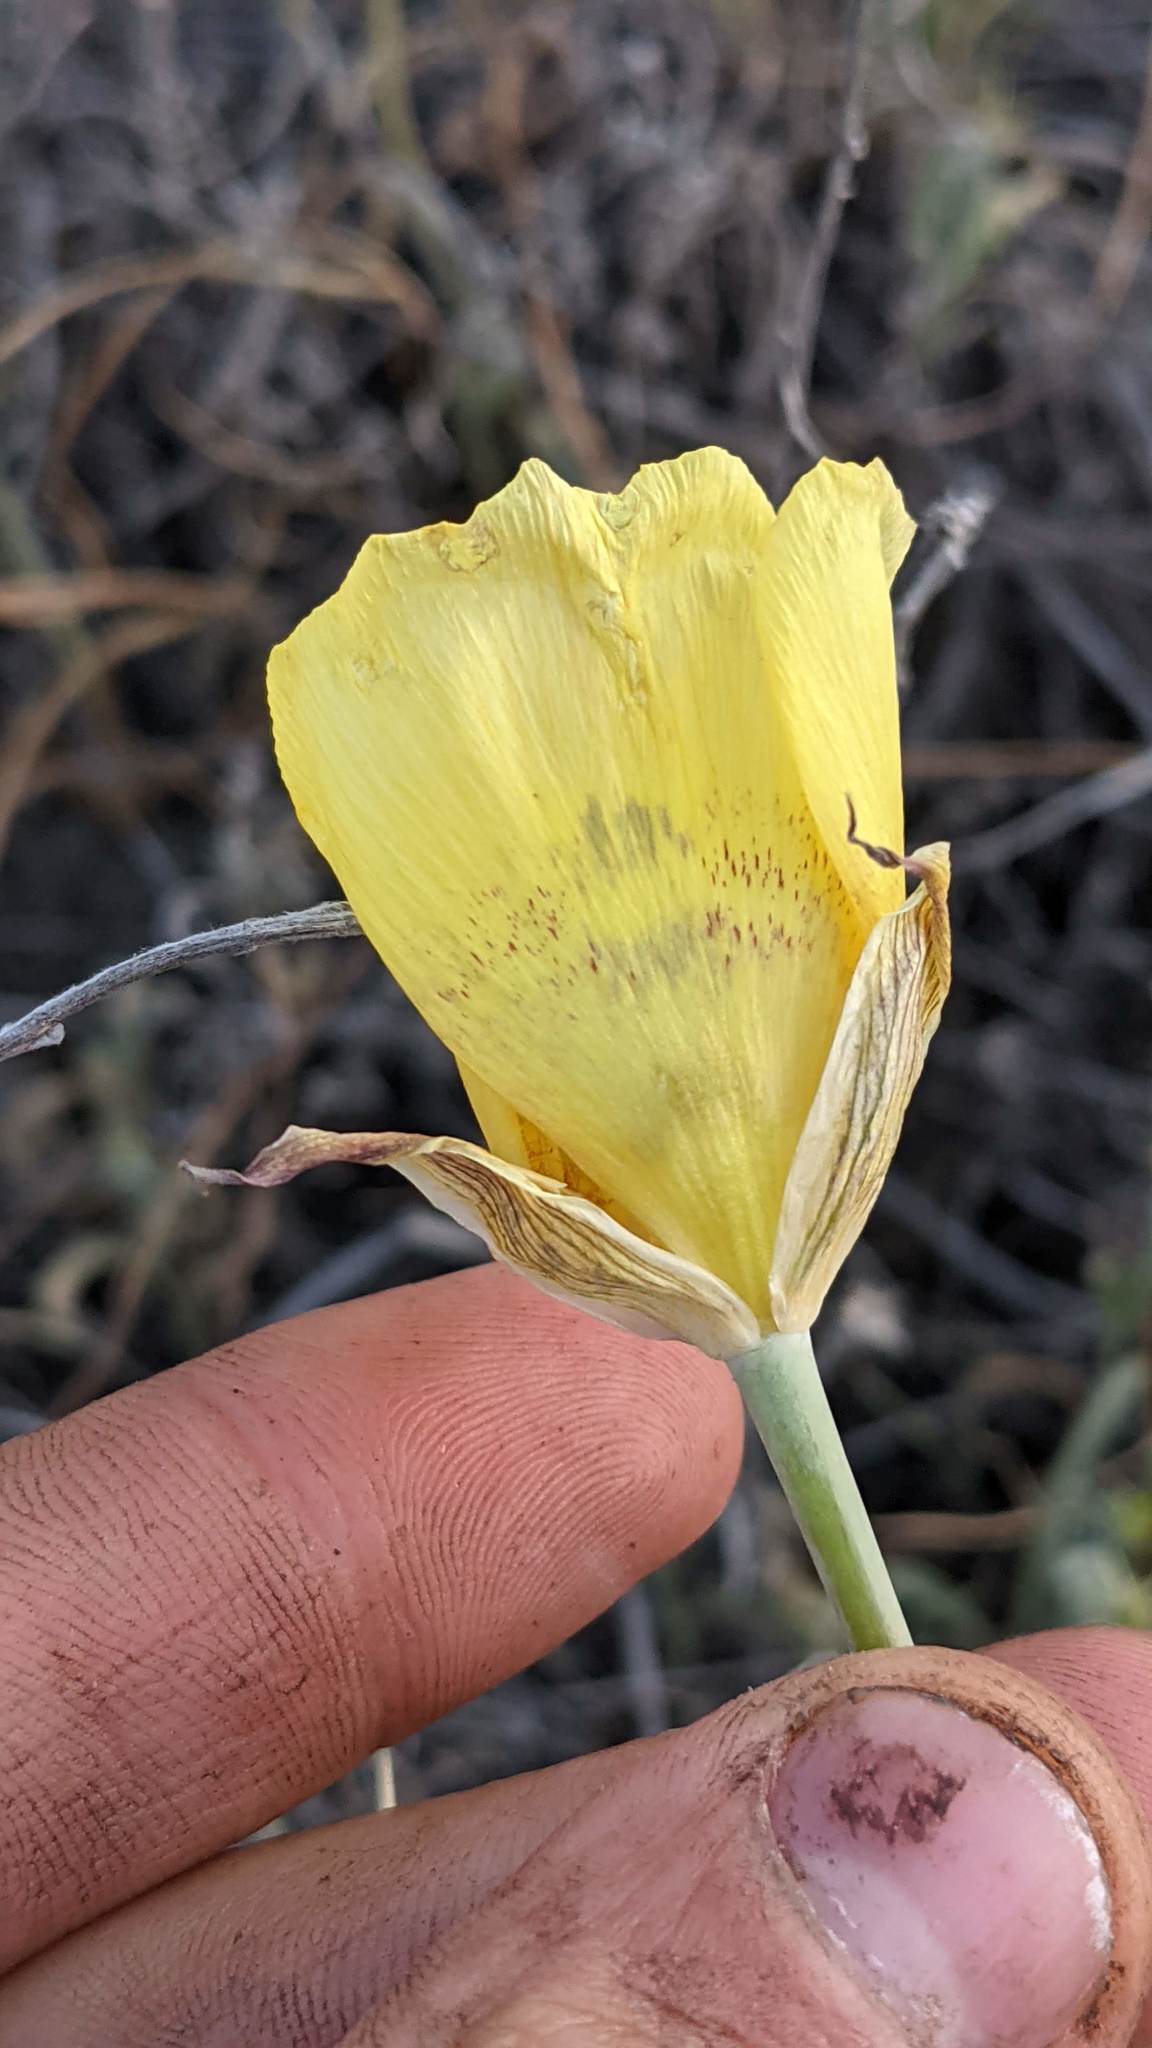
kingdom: Plantae
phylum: Tracheophyta
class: Liliopsida
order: Liliales
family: Liliaceae
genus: Calochortus
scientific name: Calochortus luteus
